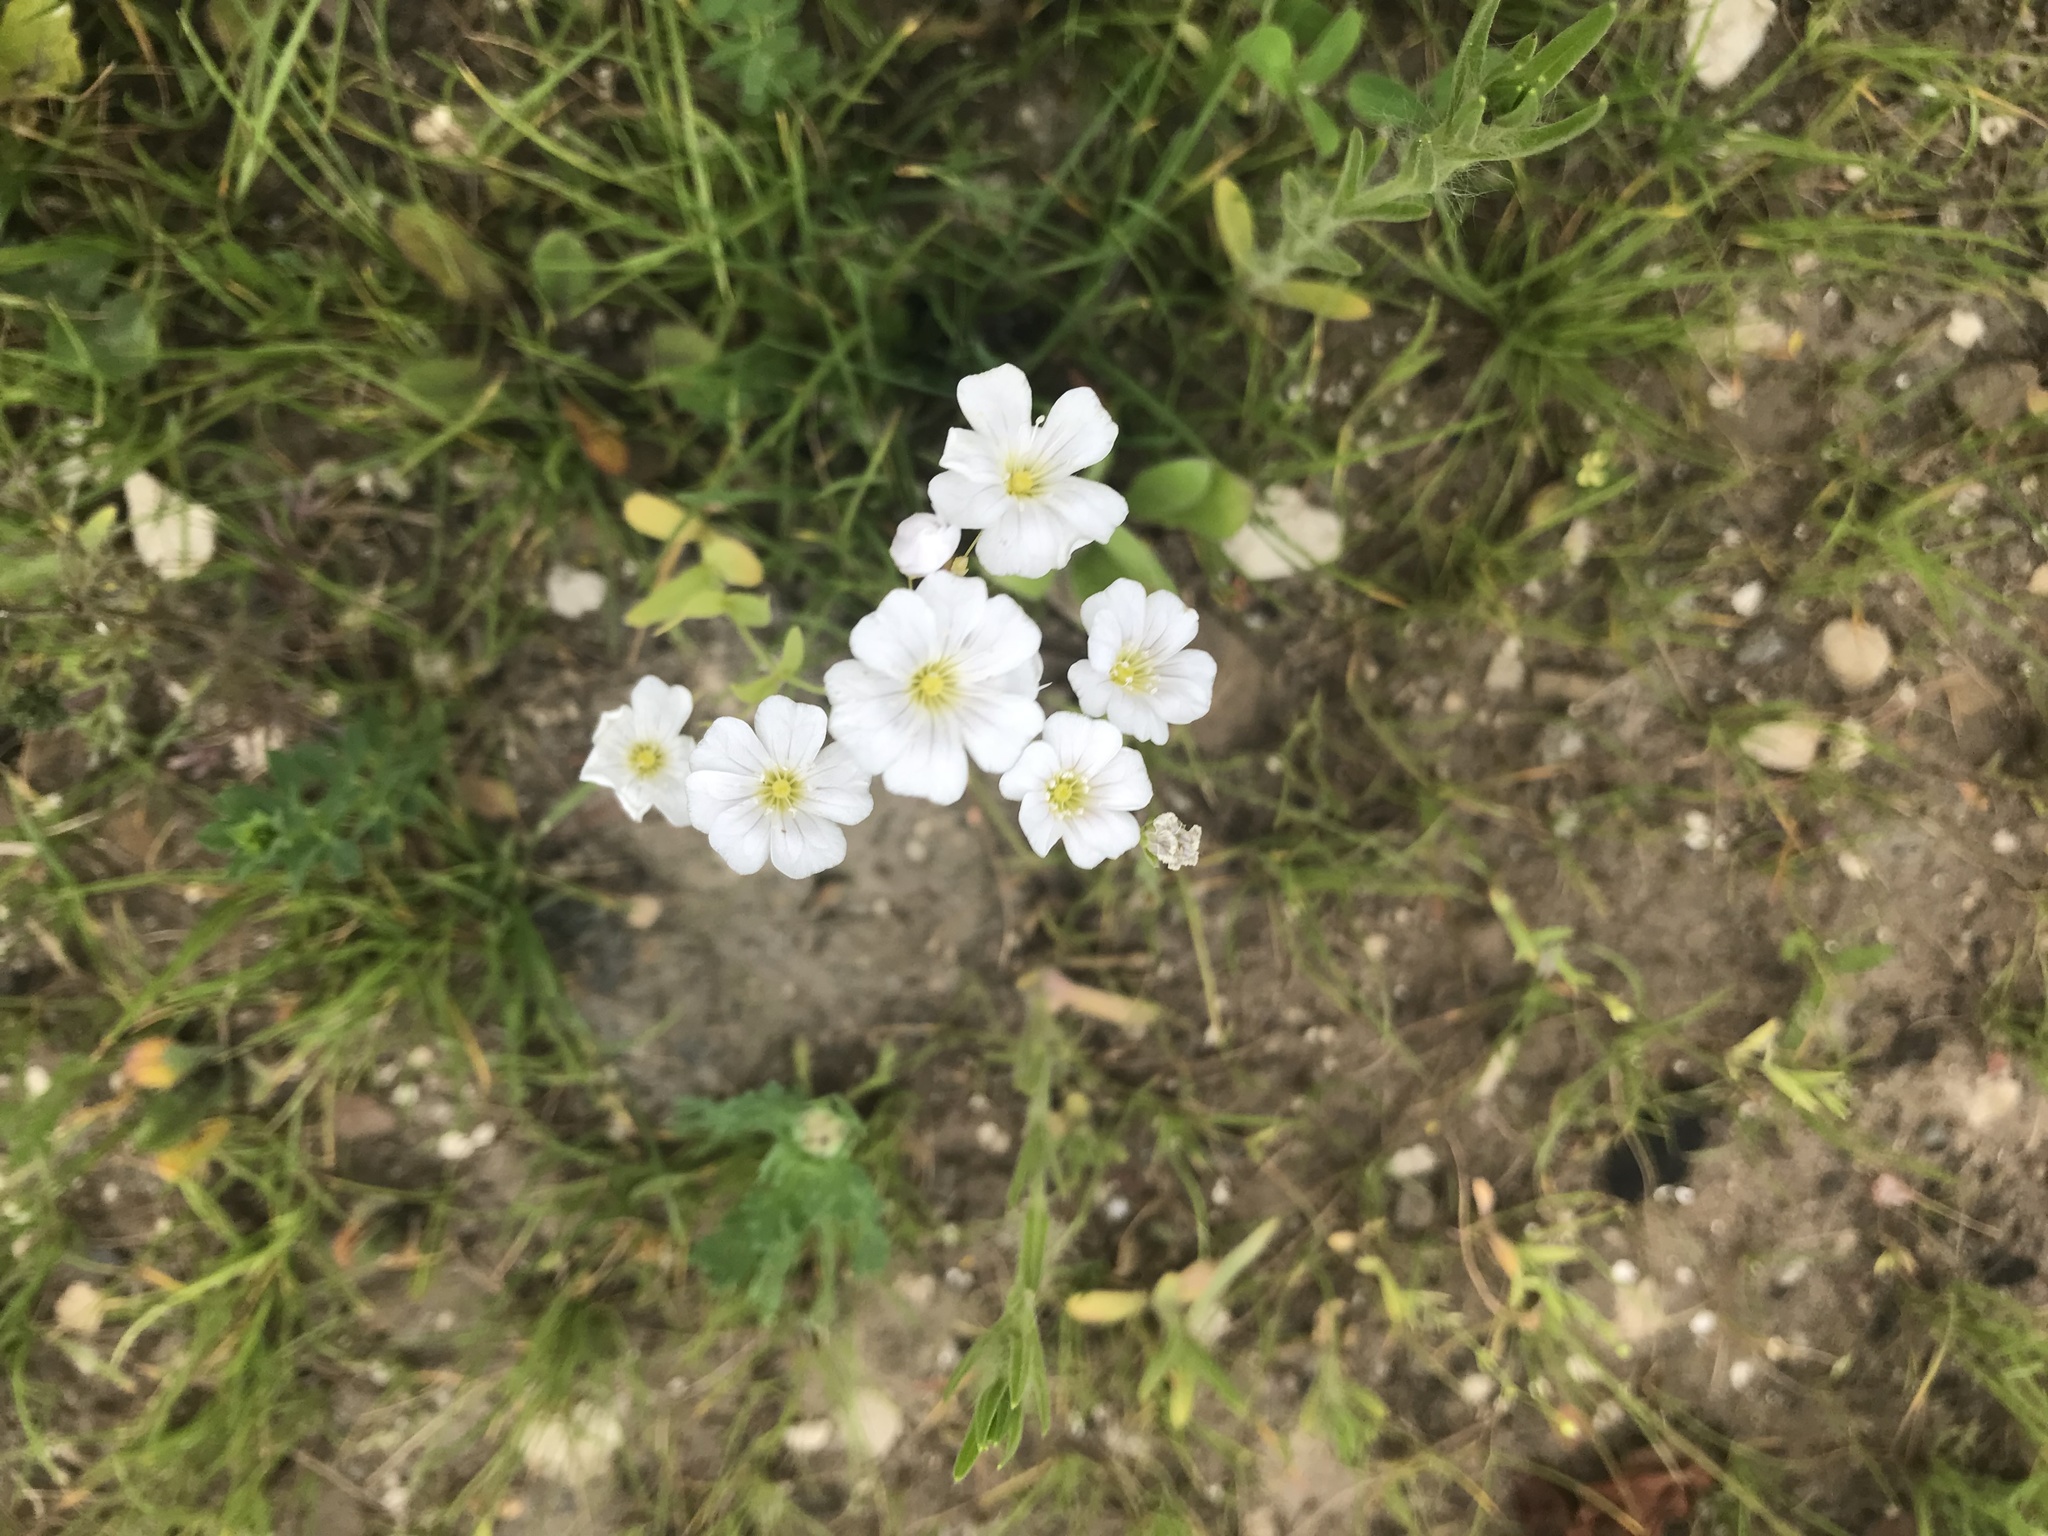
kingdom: Plantae
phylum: Tracheophyta
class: Magnoliopsida
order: Caryophyllales
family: Caryophyllaceae
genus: Gypsophila
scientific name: Gypsophila elegans
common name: Showy baby's-breath
